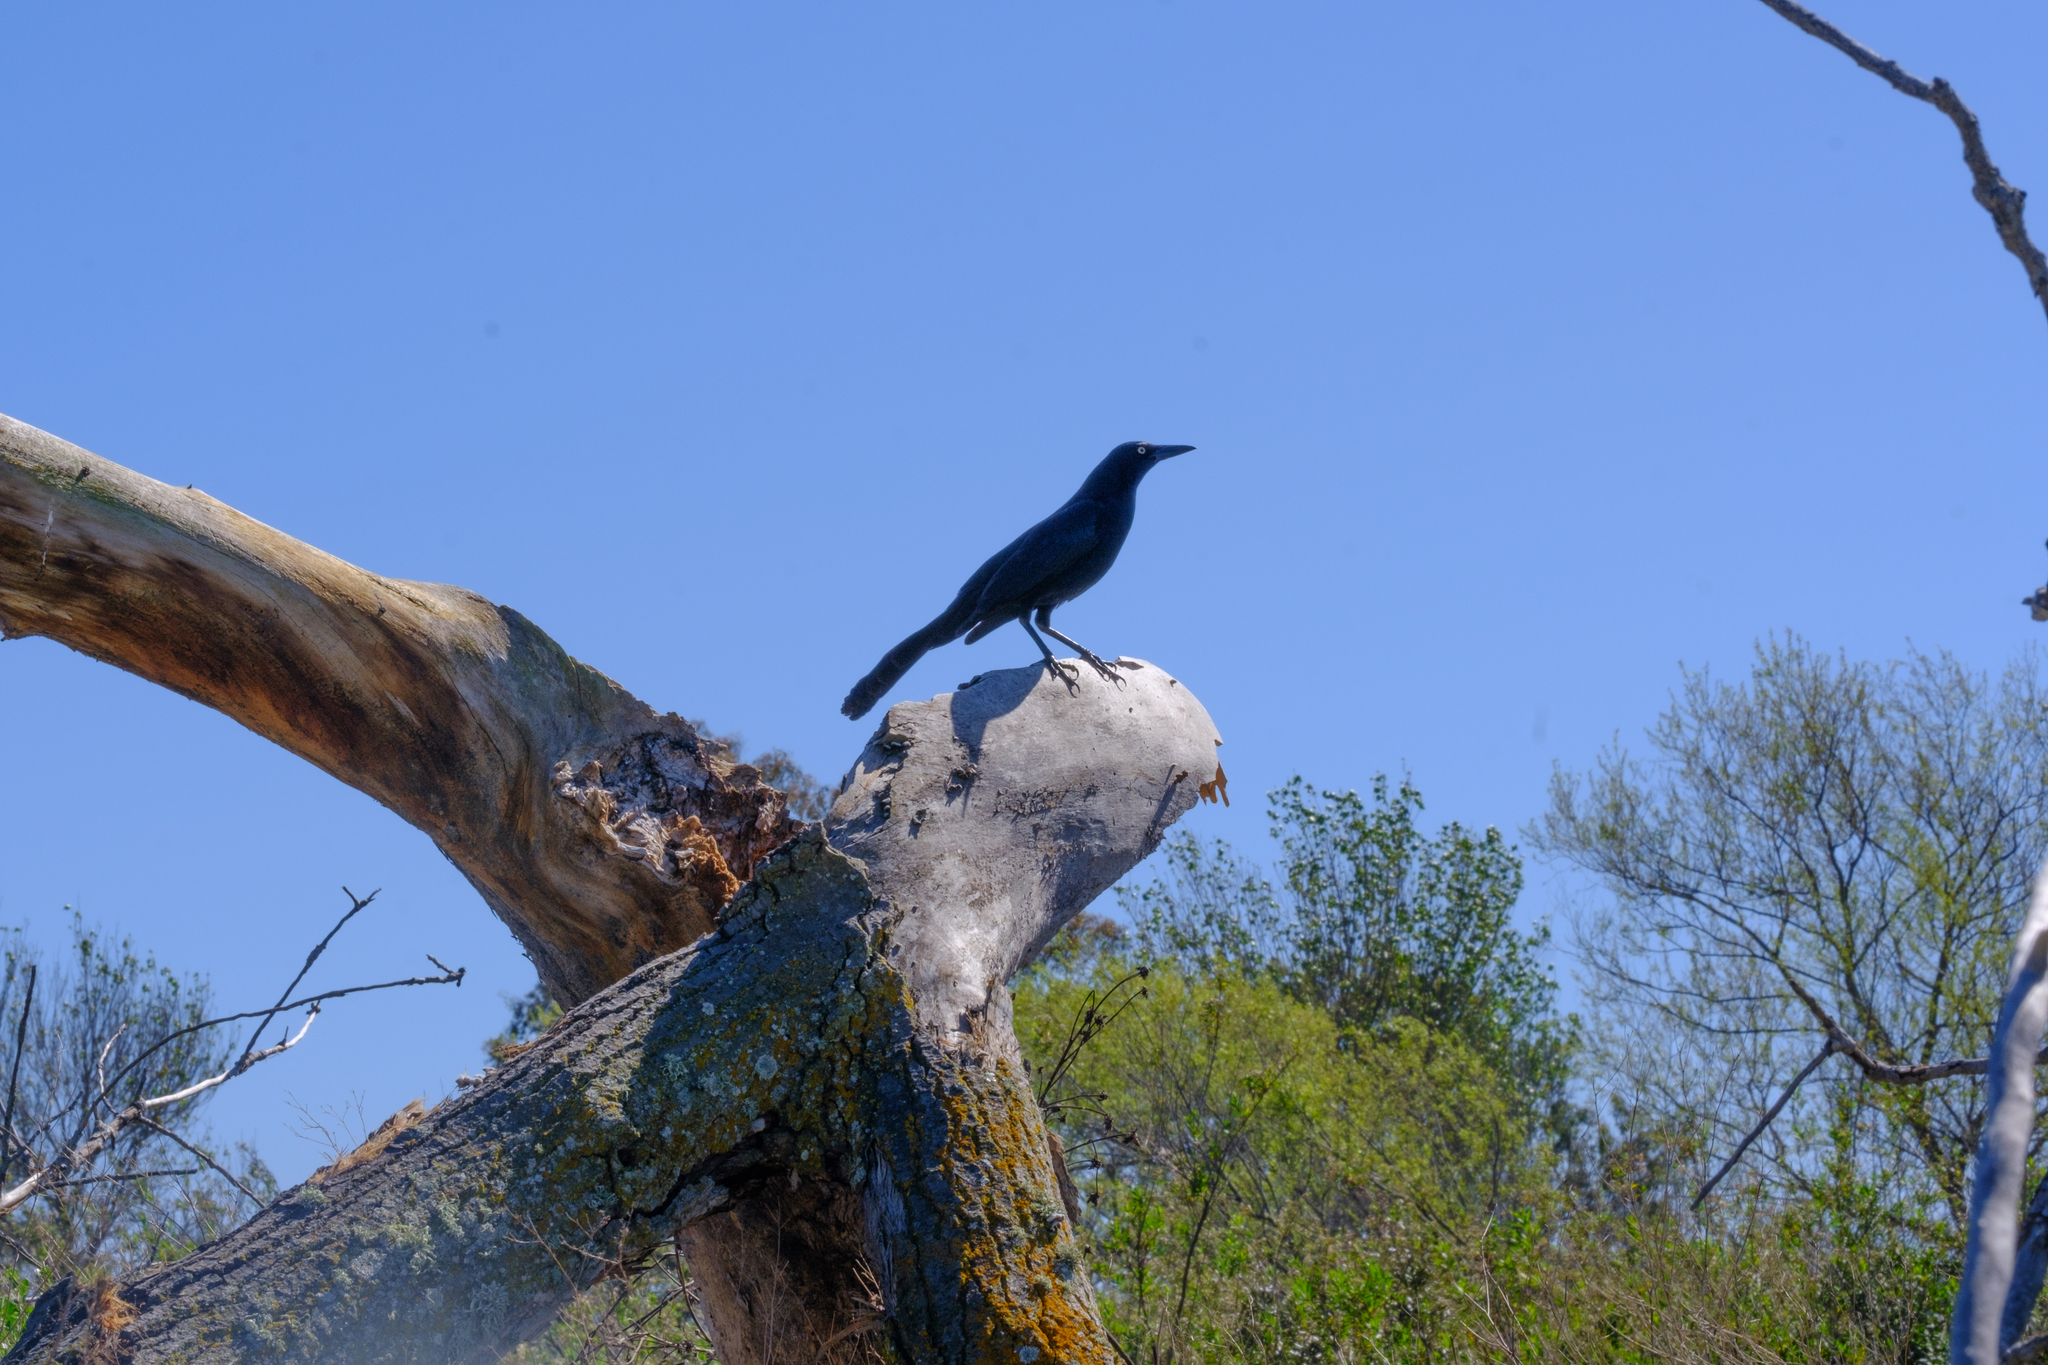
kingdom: Animalia
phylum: Chordata
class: Aves
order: Passeriformes
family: Icteridae
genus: Quiscalus
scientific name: Quiscalus mexicanus
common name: Great-tailed grackle
